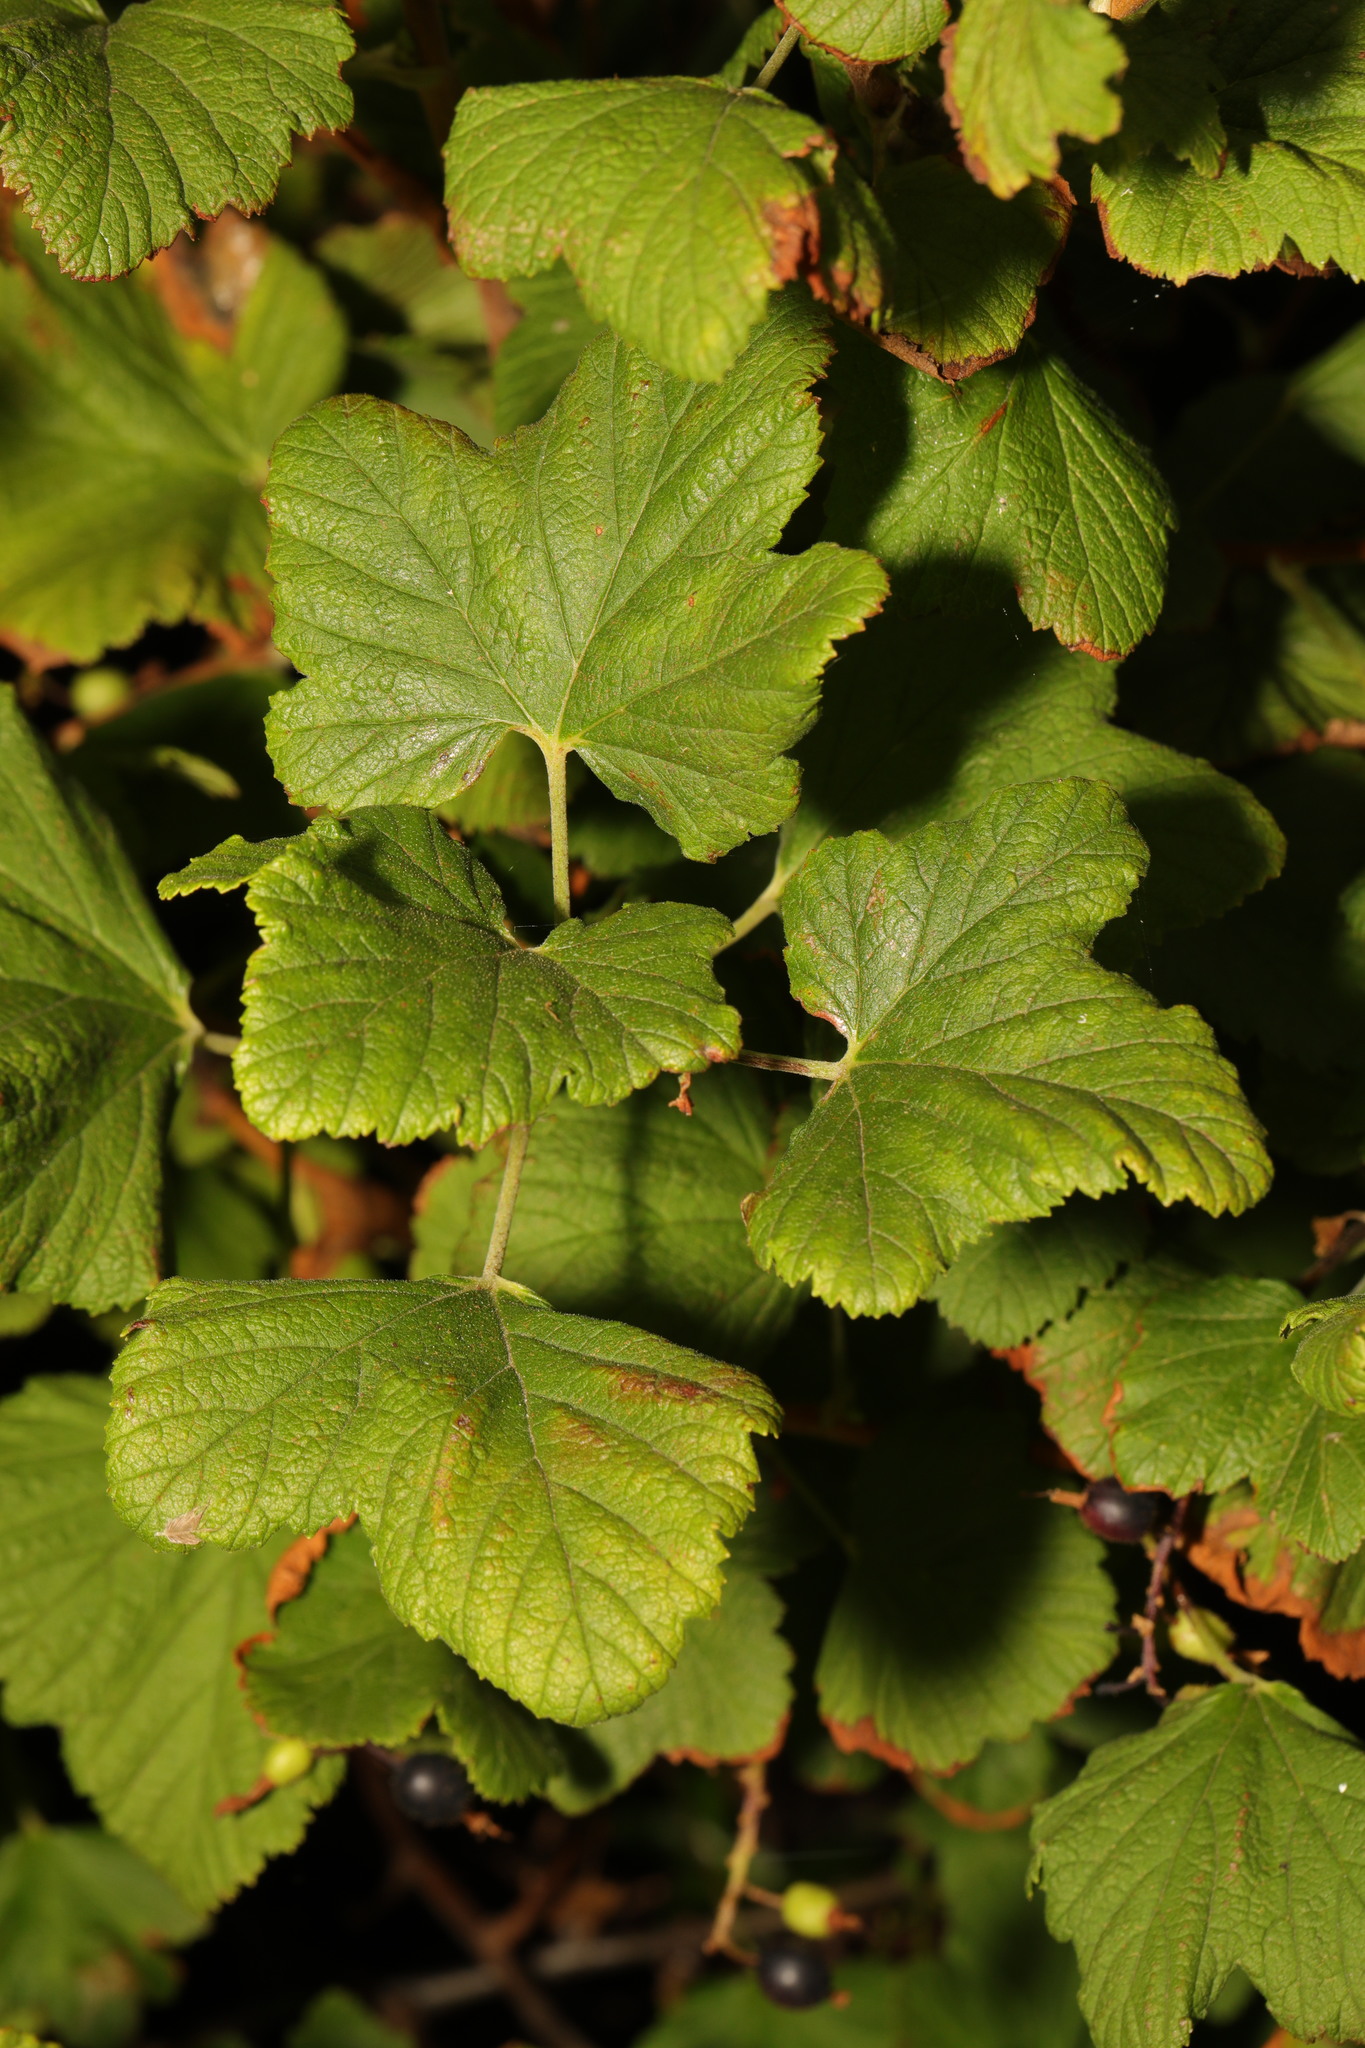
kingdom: Plantae
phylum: Tracheophyta
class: Magnoliopsida
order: Saxifragales
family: Grossulariaceae
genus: Ribes
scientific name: Ribes sanguineum
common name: Flowering currant
